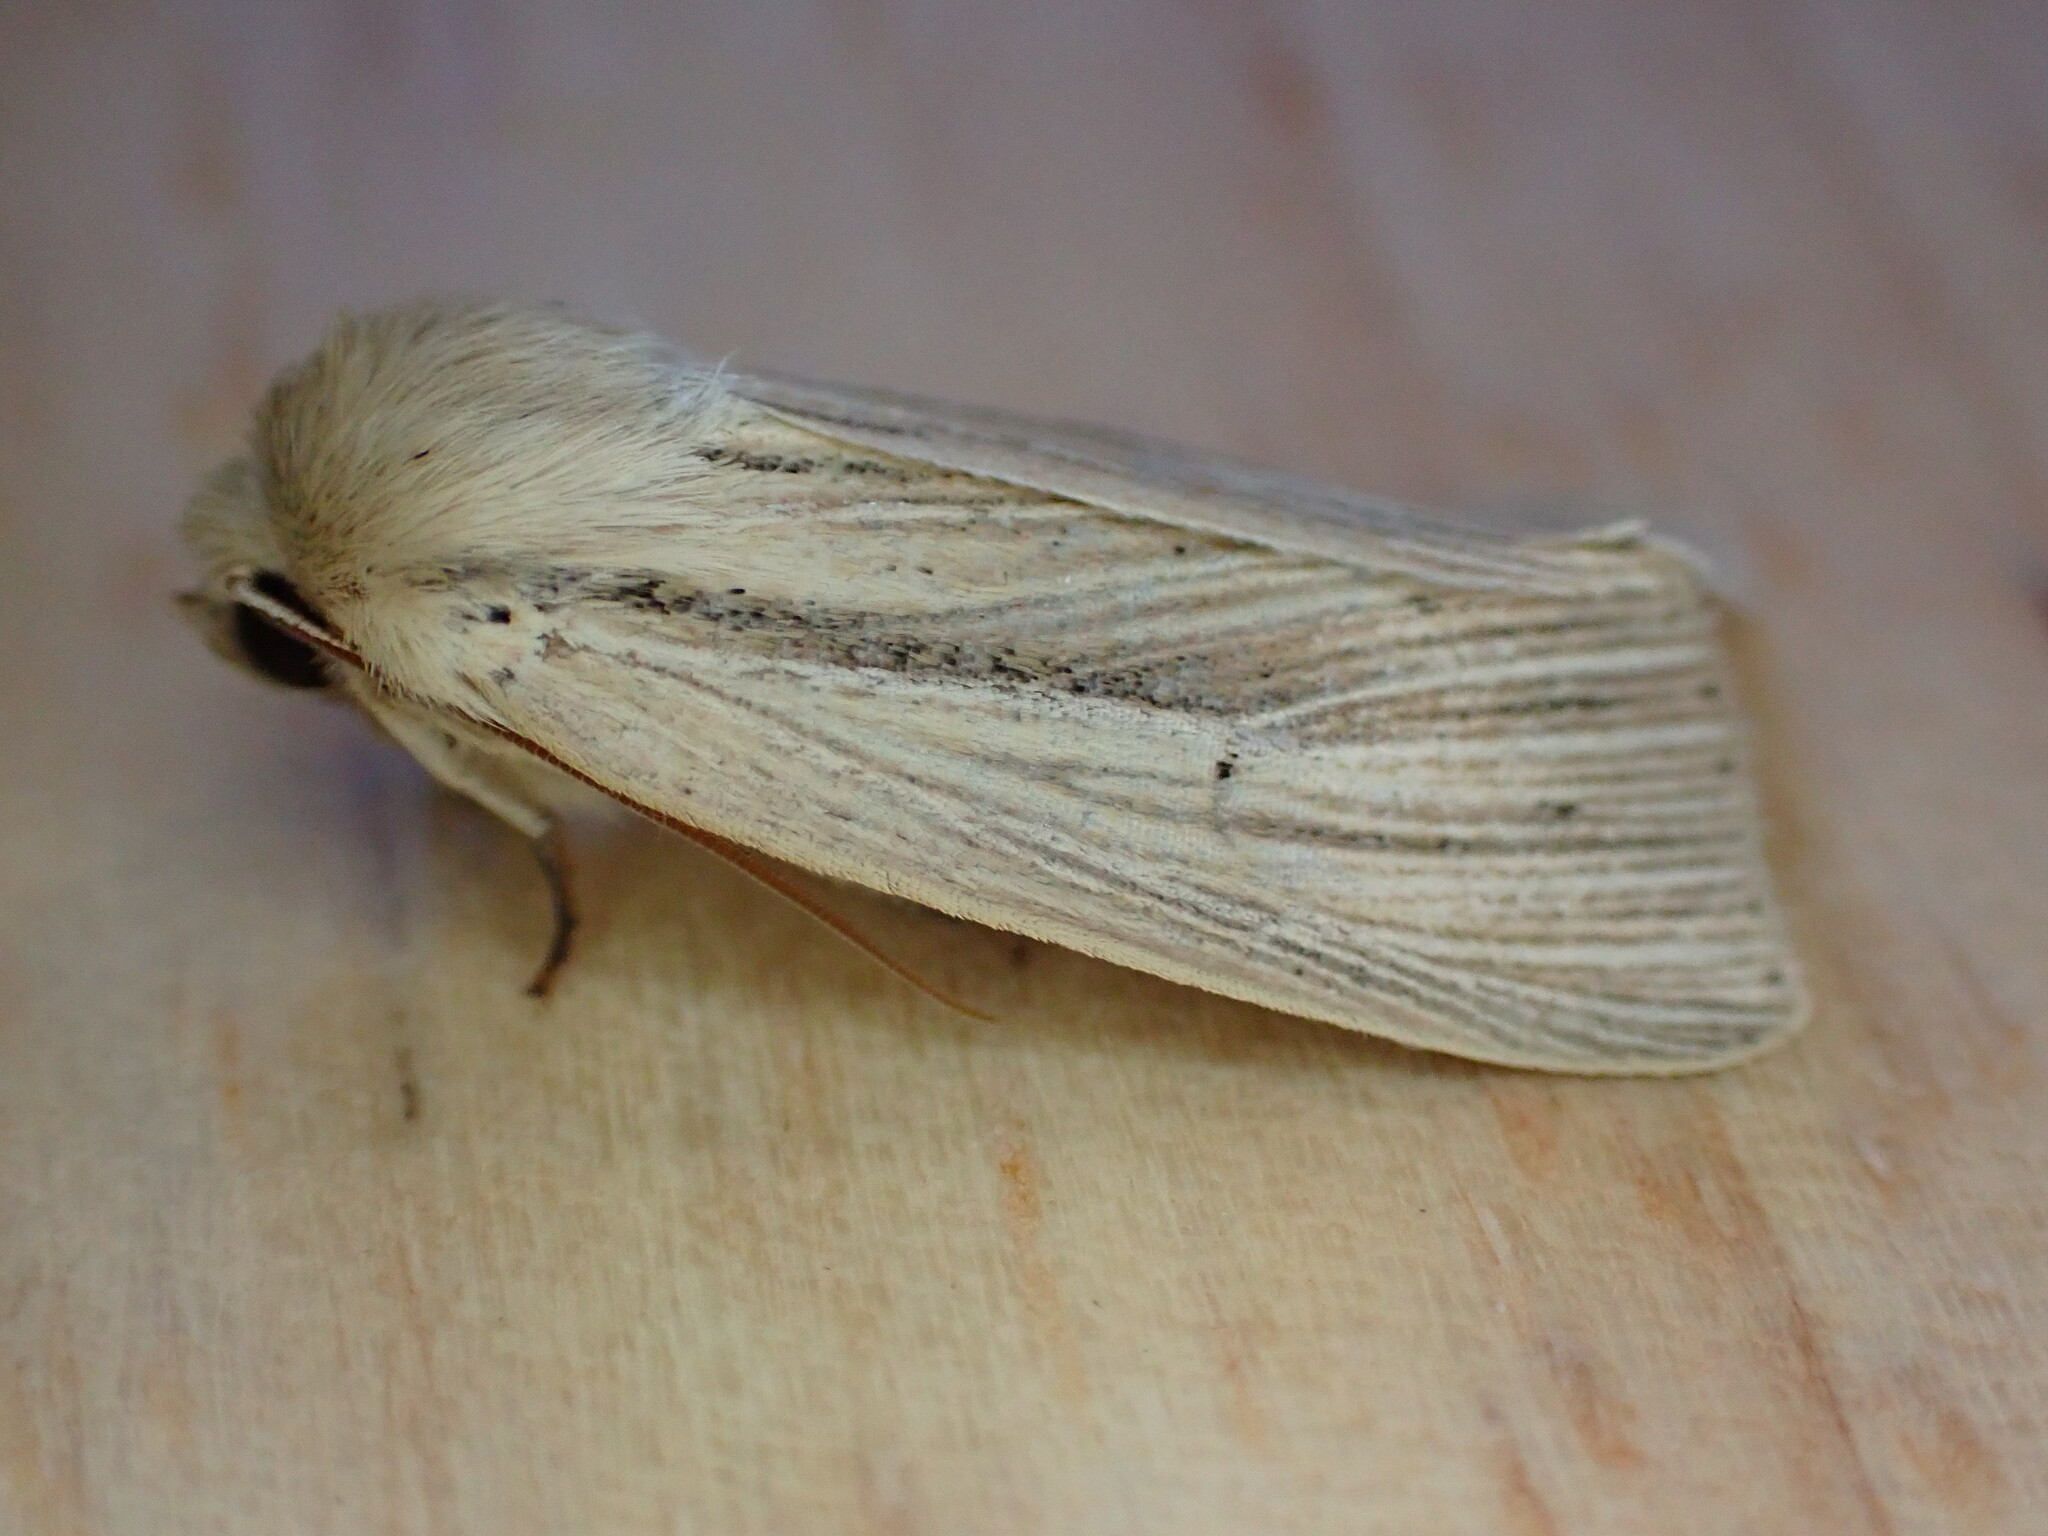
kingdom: Animalia
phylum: Arthropoda
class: Insecta
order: Lepidoptera
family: Noctuidae
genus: Mythimna
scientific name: Mythimna impura
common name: Smoky wainscot
